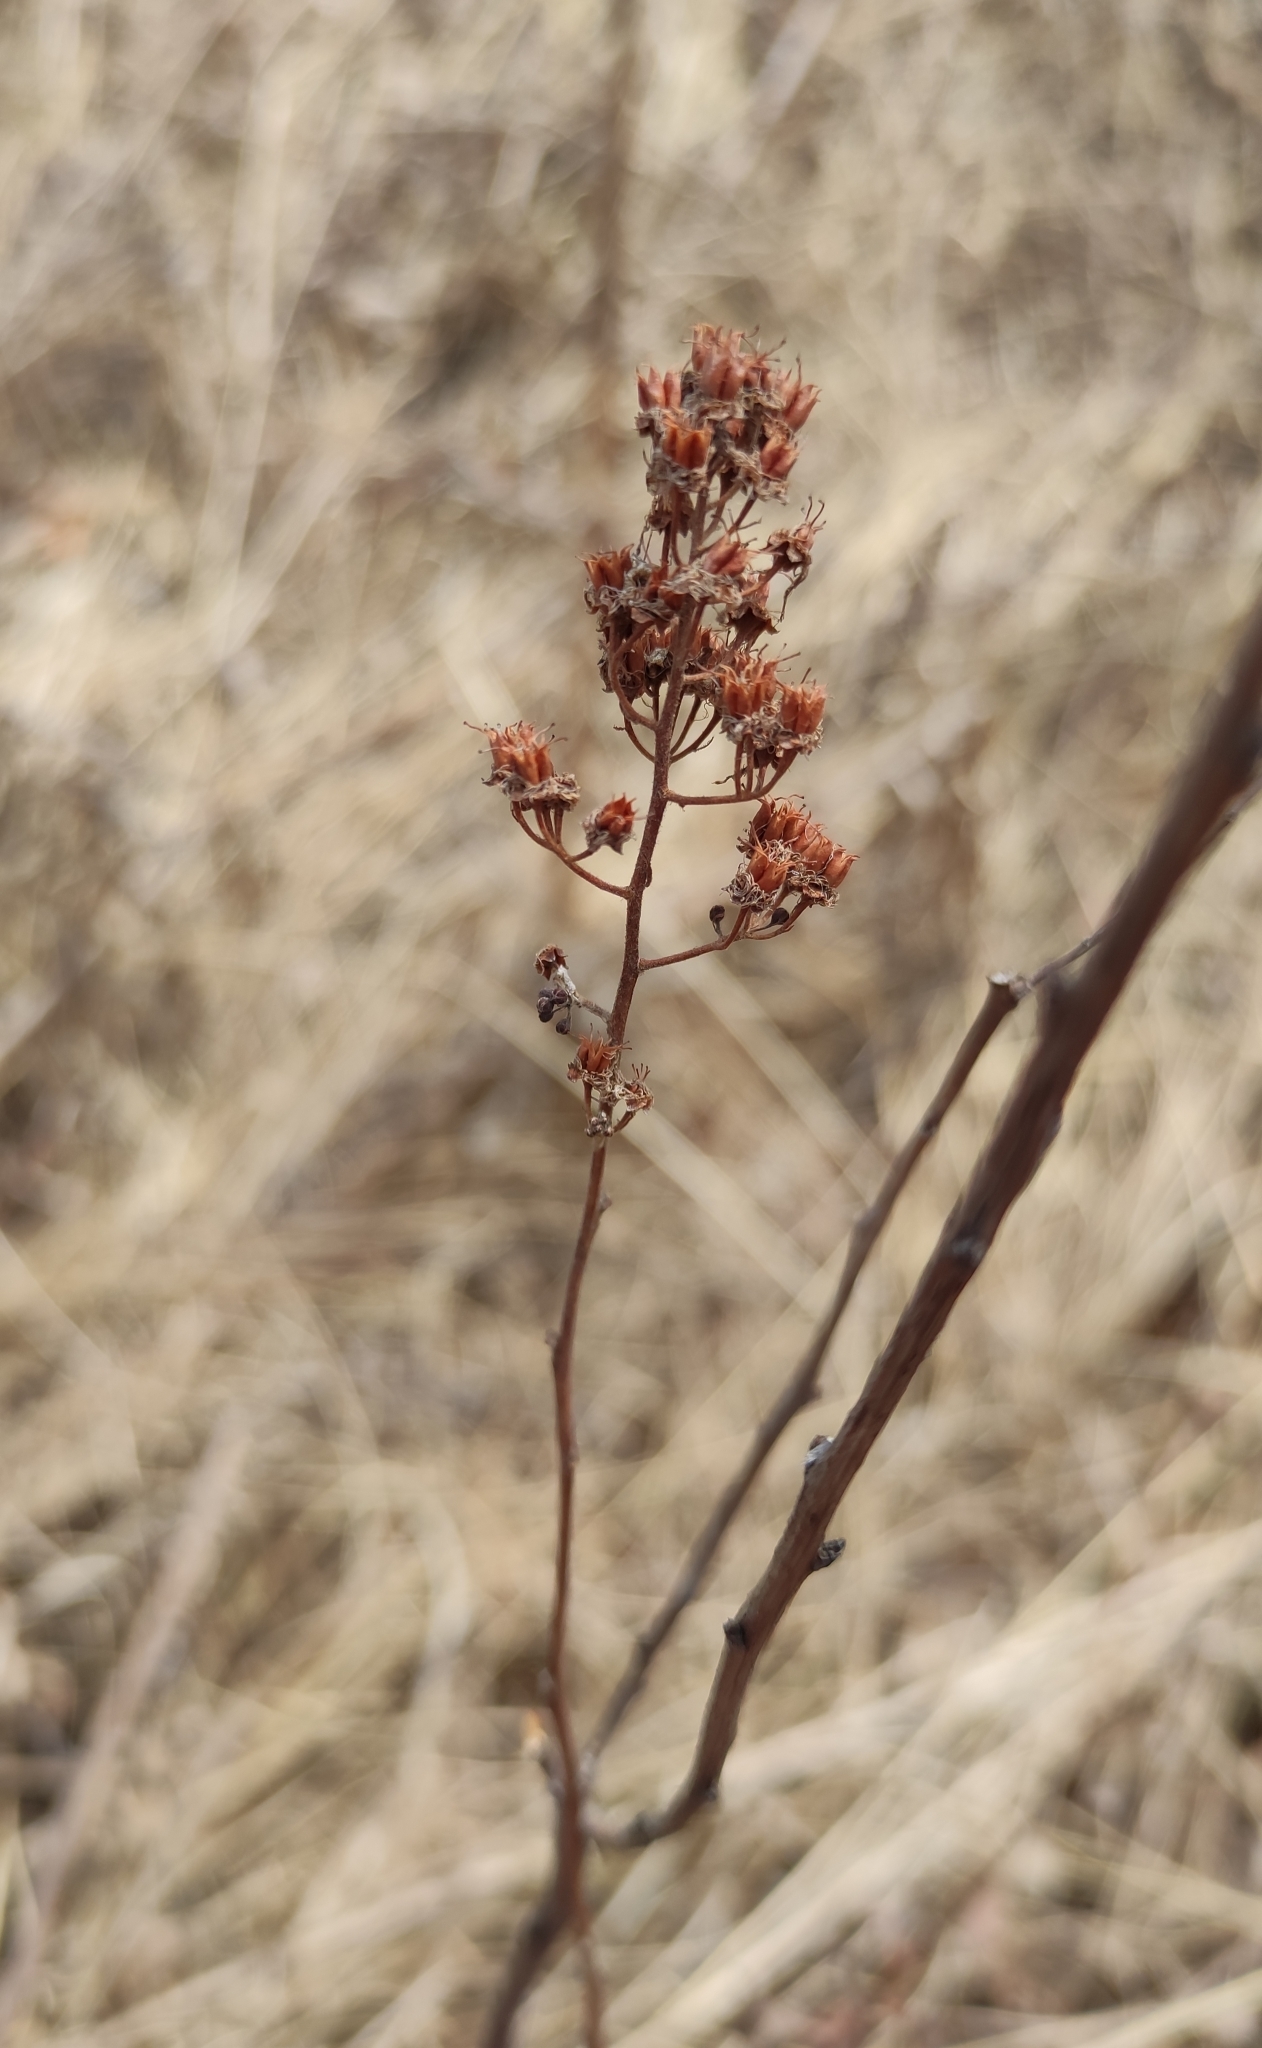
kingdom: Plantae
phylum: Tracheophyta
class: Magnoliopsida
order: Rosales
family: Rosaceae
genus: Spiraea
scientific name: Spiraea salicifolia
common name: Bridewort
